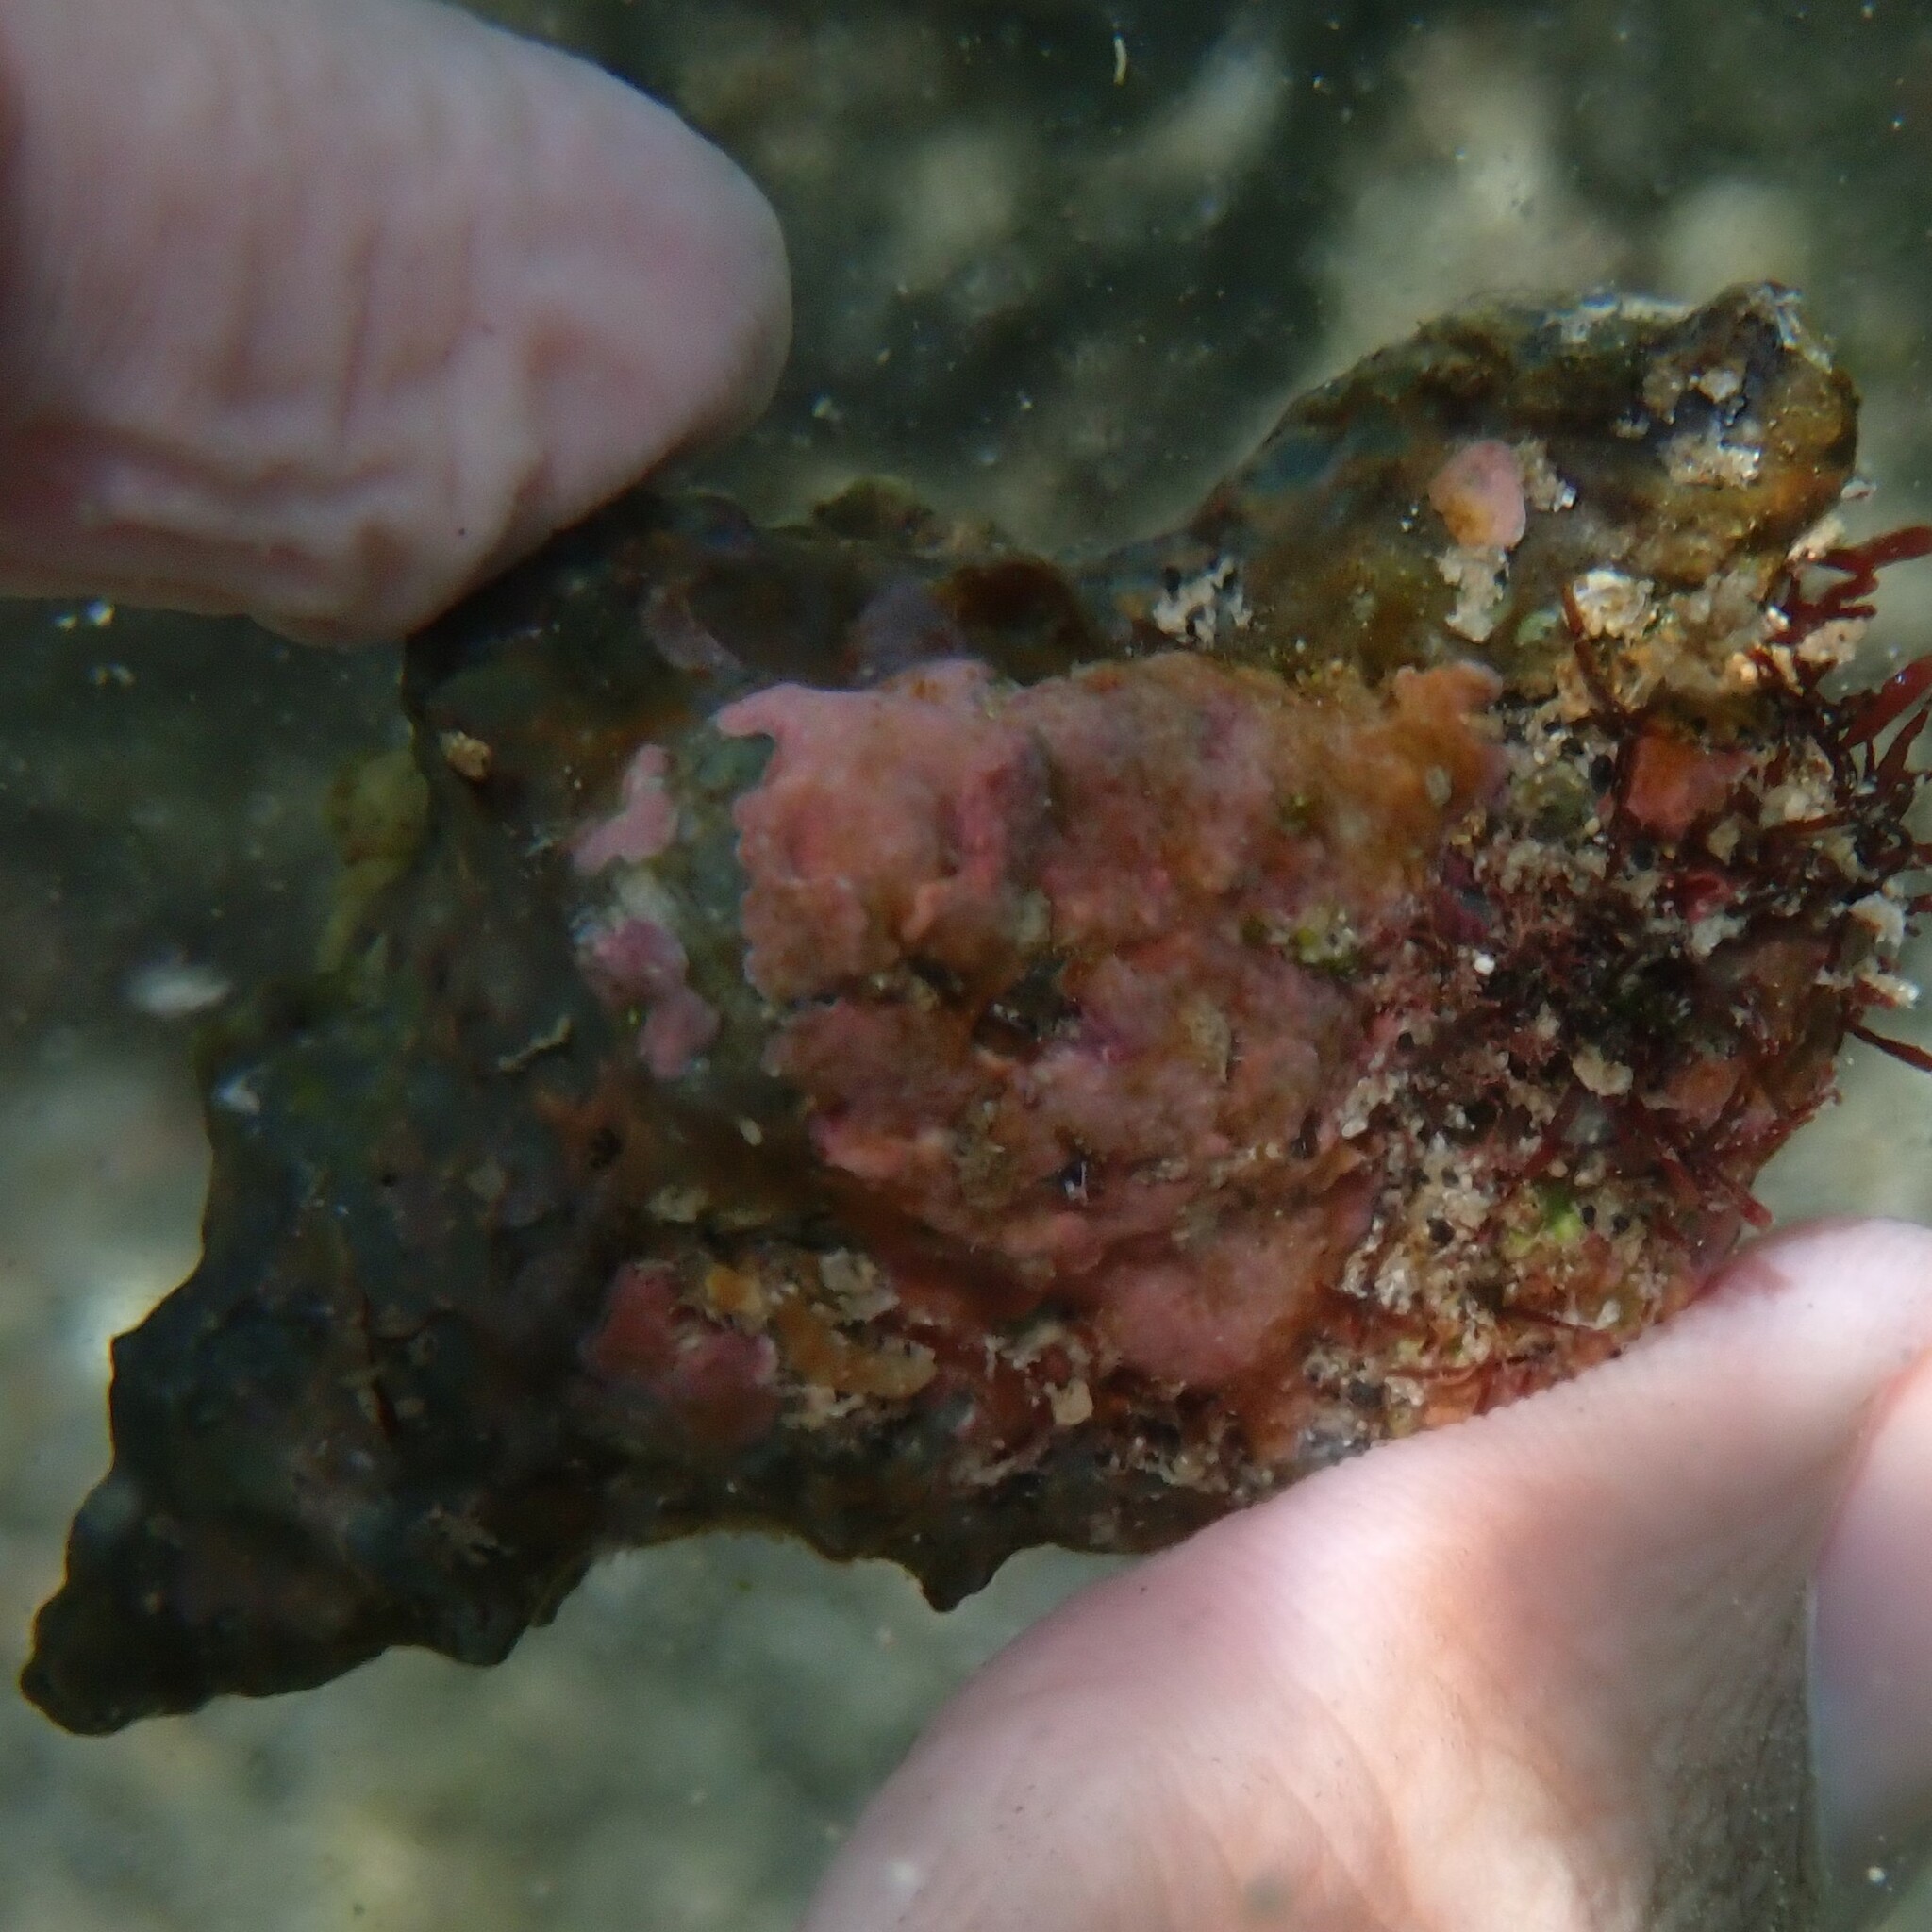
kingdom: Animalia
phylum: Mollusca
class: Gastropoda
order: Littorinimorpha
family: Cymatiidae
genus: Monoplex
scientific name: Monoplex nicobaricus
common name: Goldmouth triton
